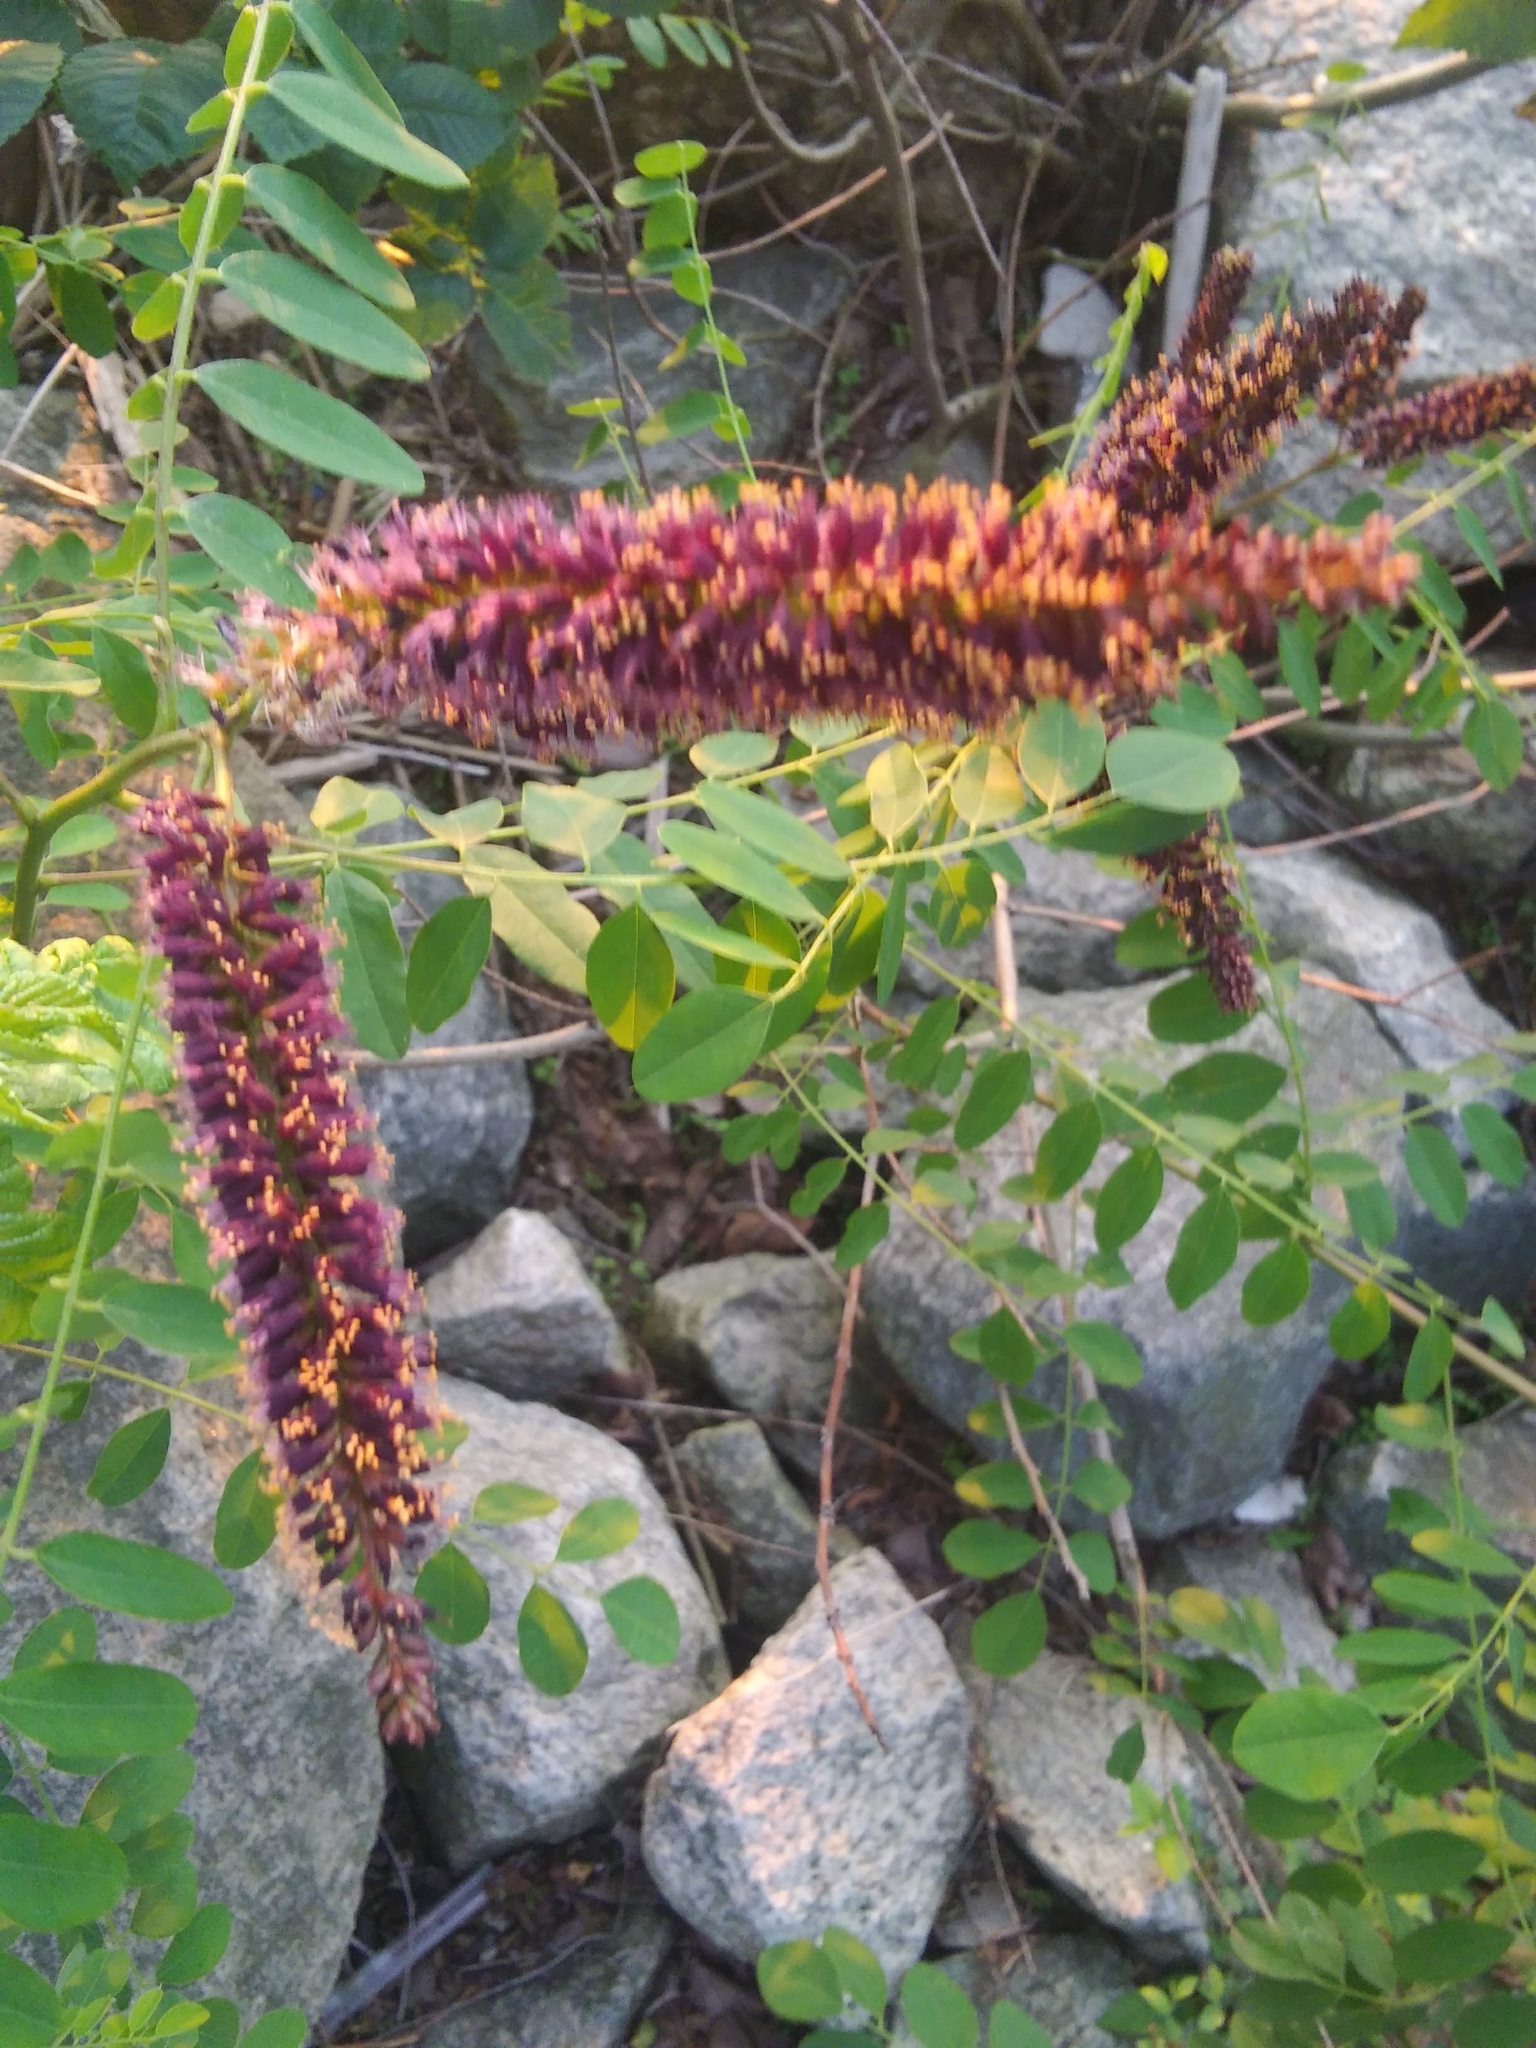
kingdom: Plantae
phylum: Tracheophyta
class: Magnoliopsida
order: Fabales
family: Fabaceae
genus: Amorpha
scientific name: Amorpha fruticosa
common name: False indigo
